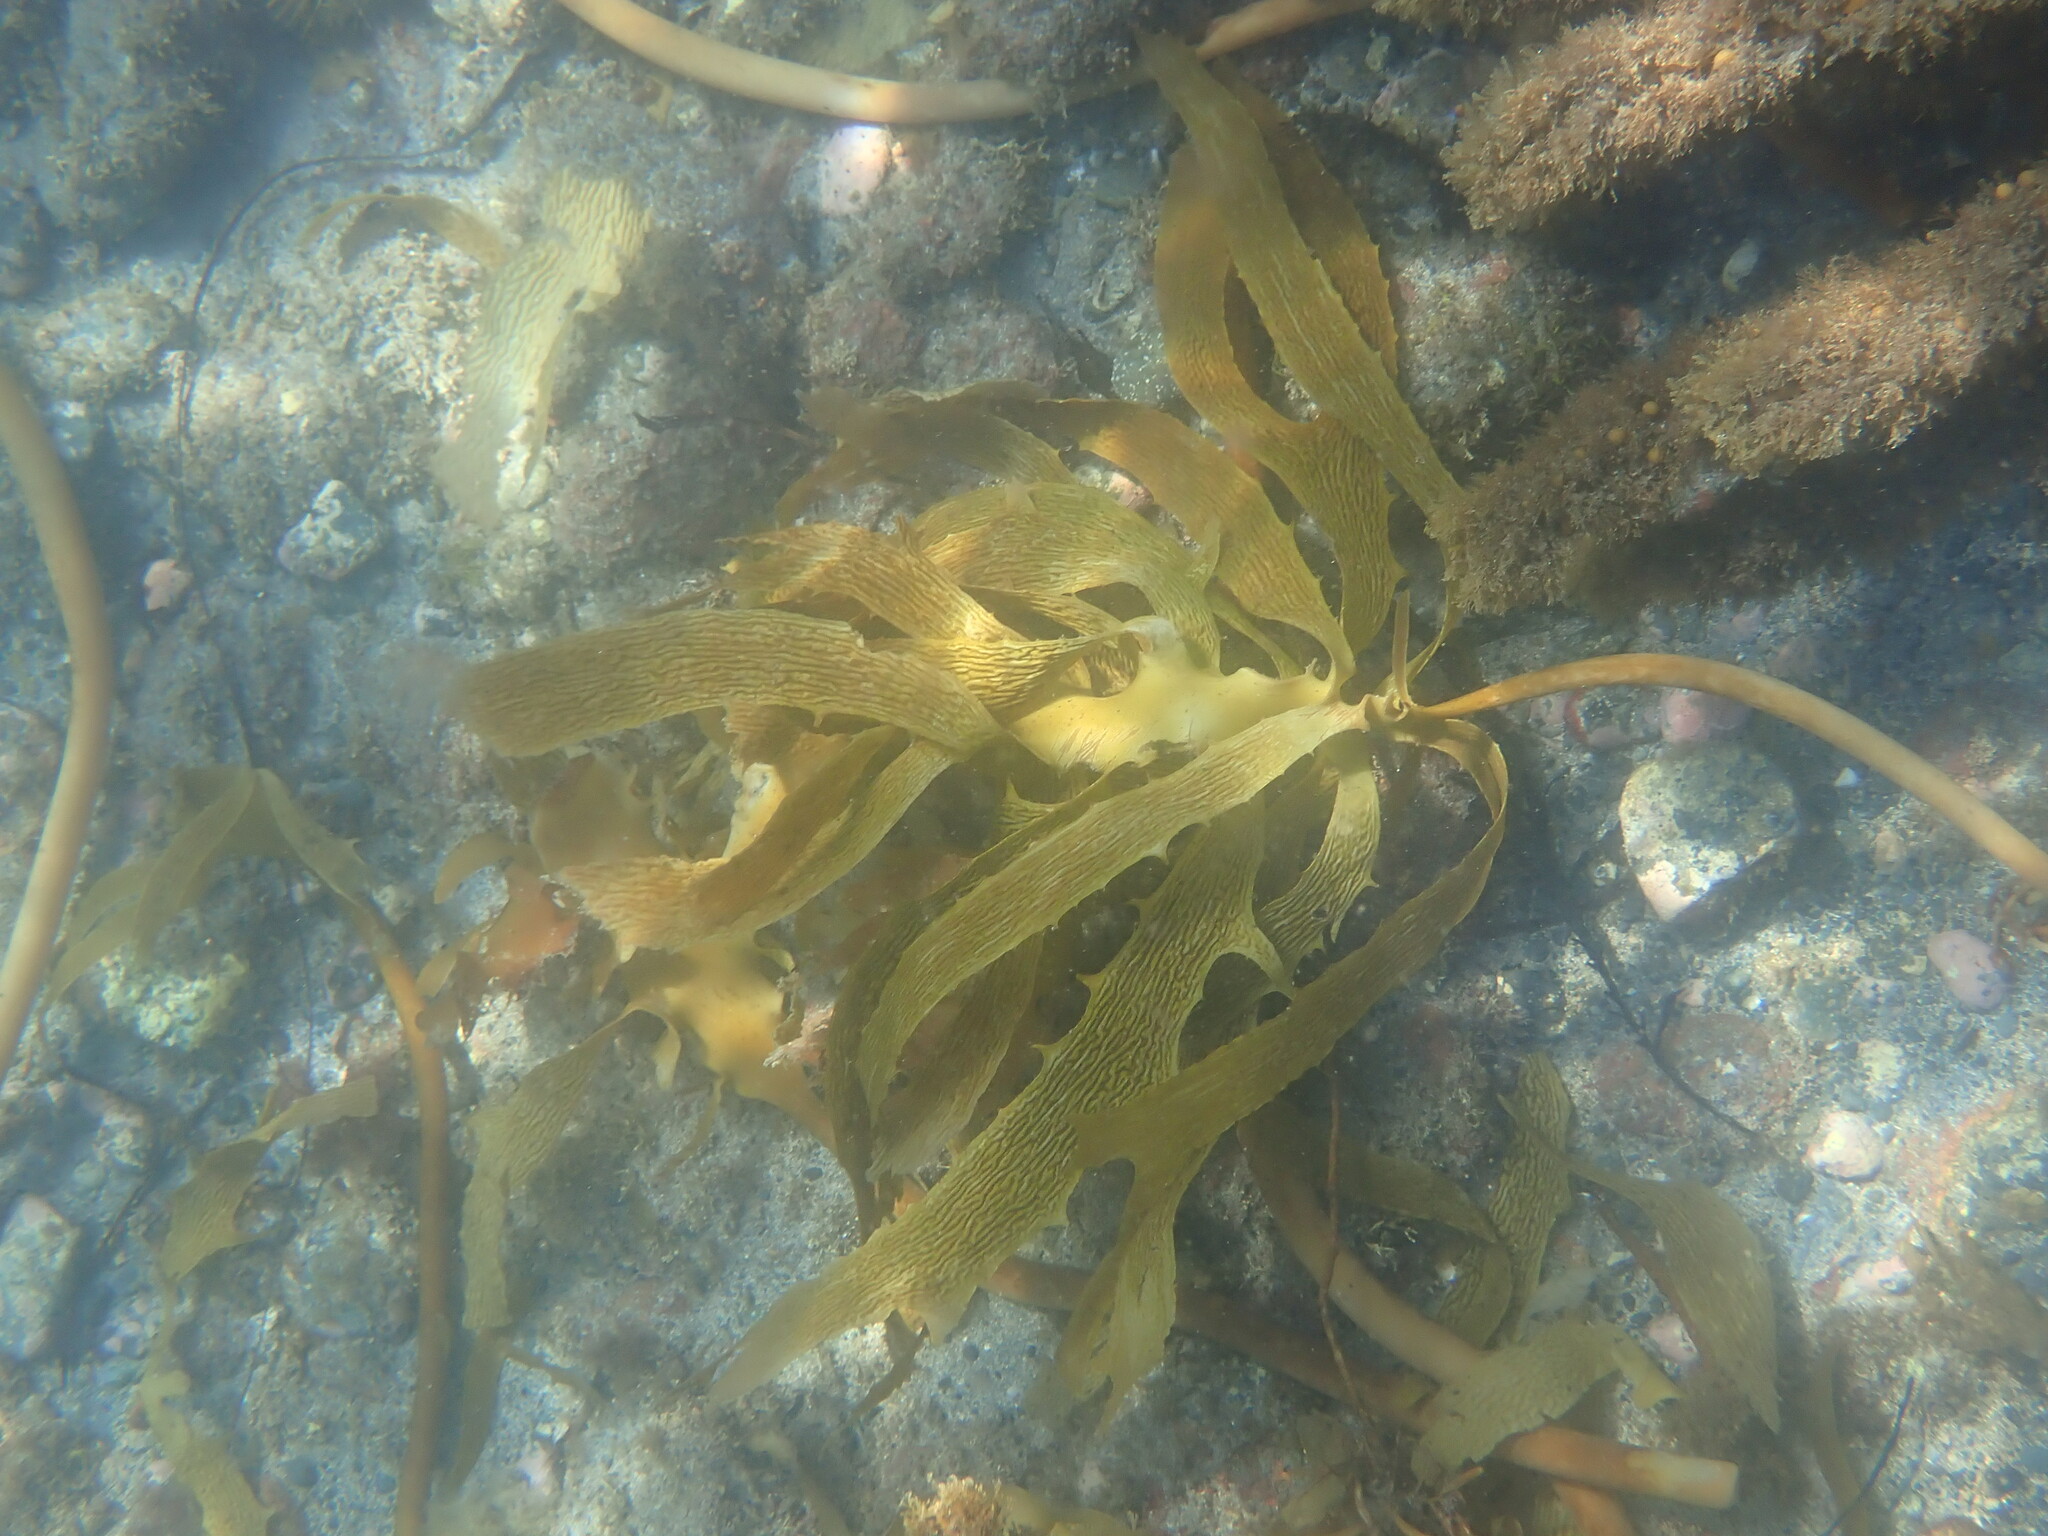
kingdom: Chromista
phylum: Ochrophyta
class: Phaeophyceae
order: Laminariales
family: Lessoniaceae
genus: Ecklonia
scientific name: Ecklonia radiata
